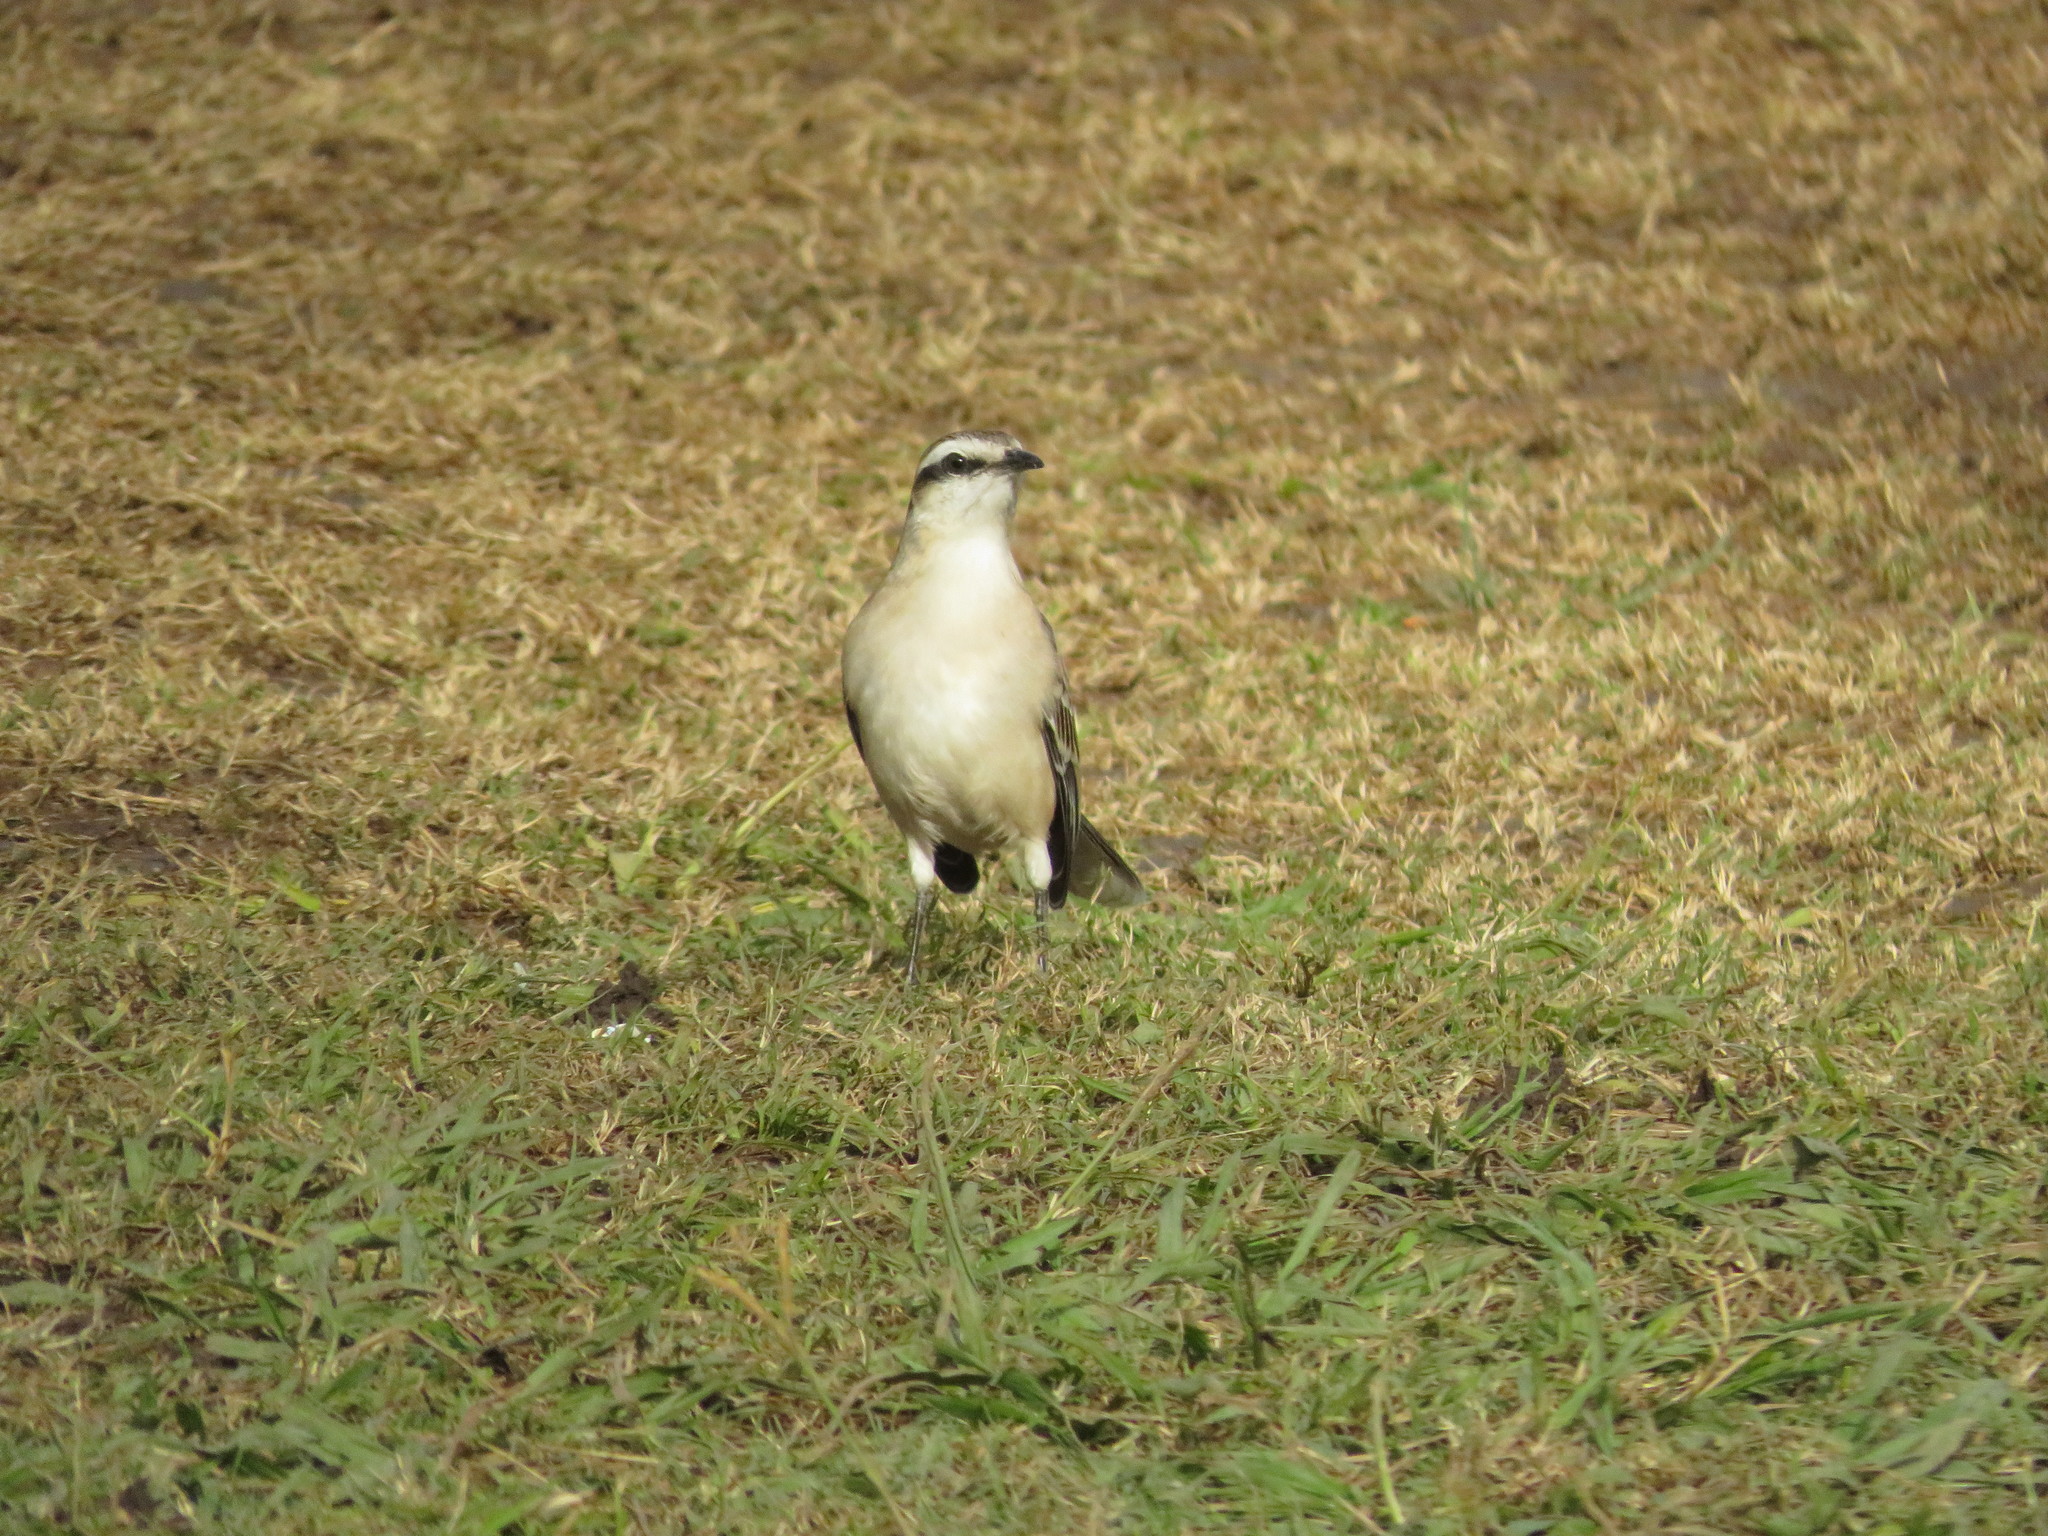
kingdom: Animalia
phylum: Chordata
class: Aves
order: Passeriformes
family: Mimidae
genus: Mimus
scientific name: Mimus saturninus
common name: Chalk-browed mockingbird
